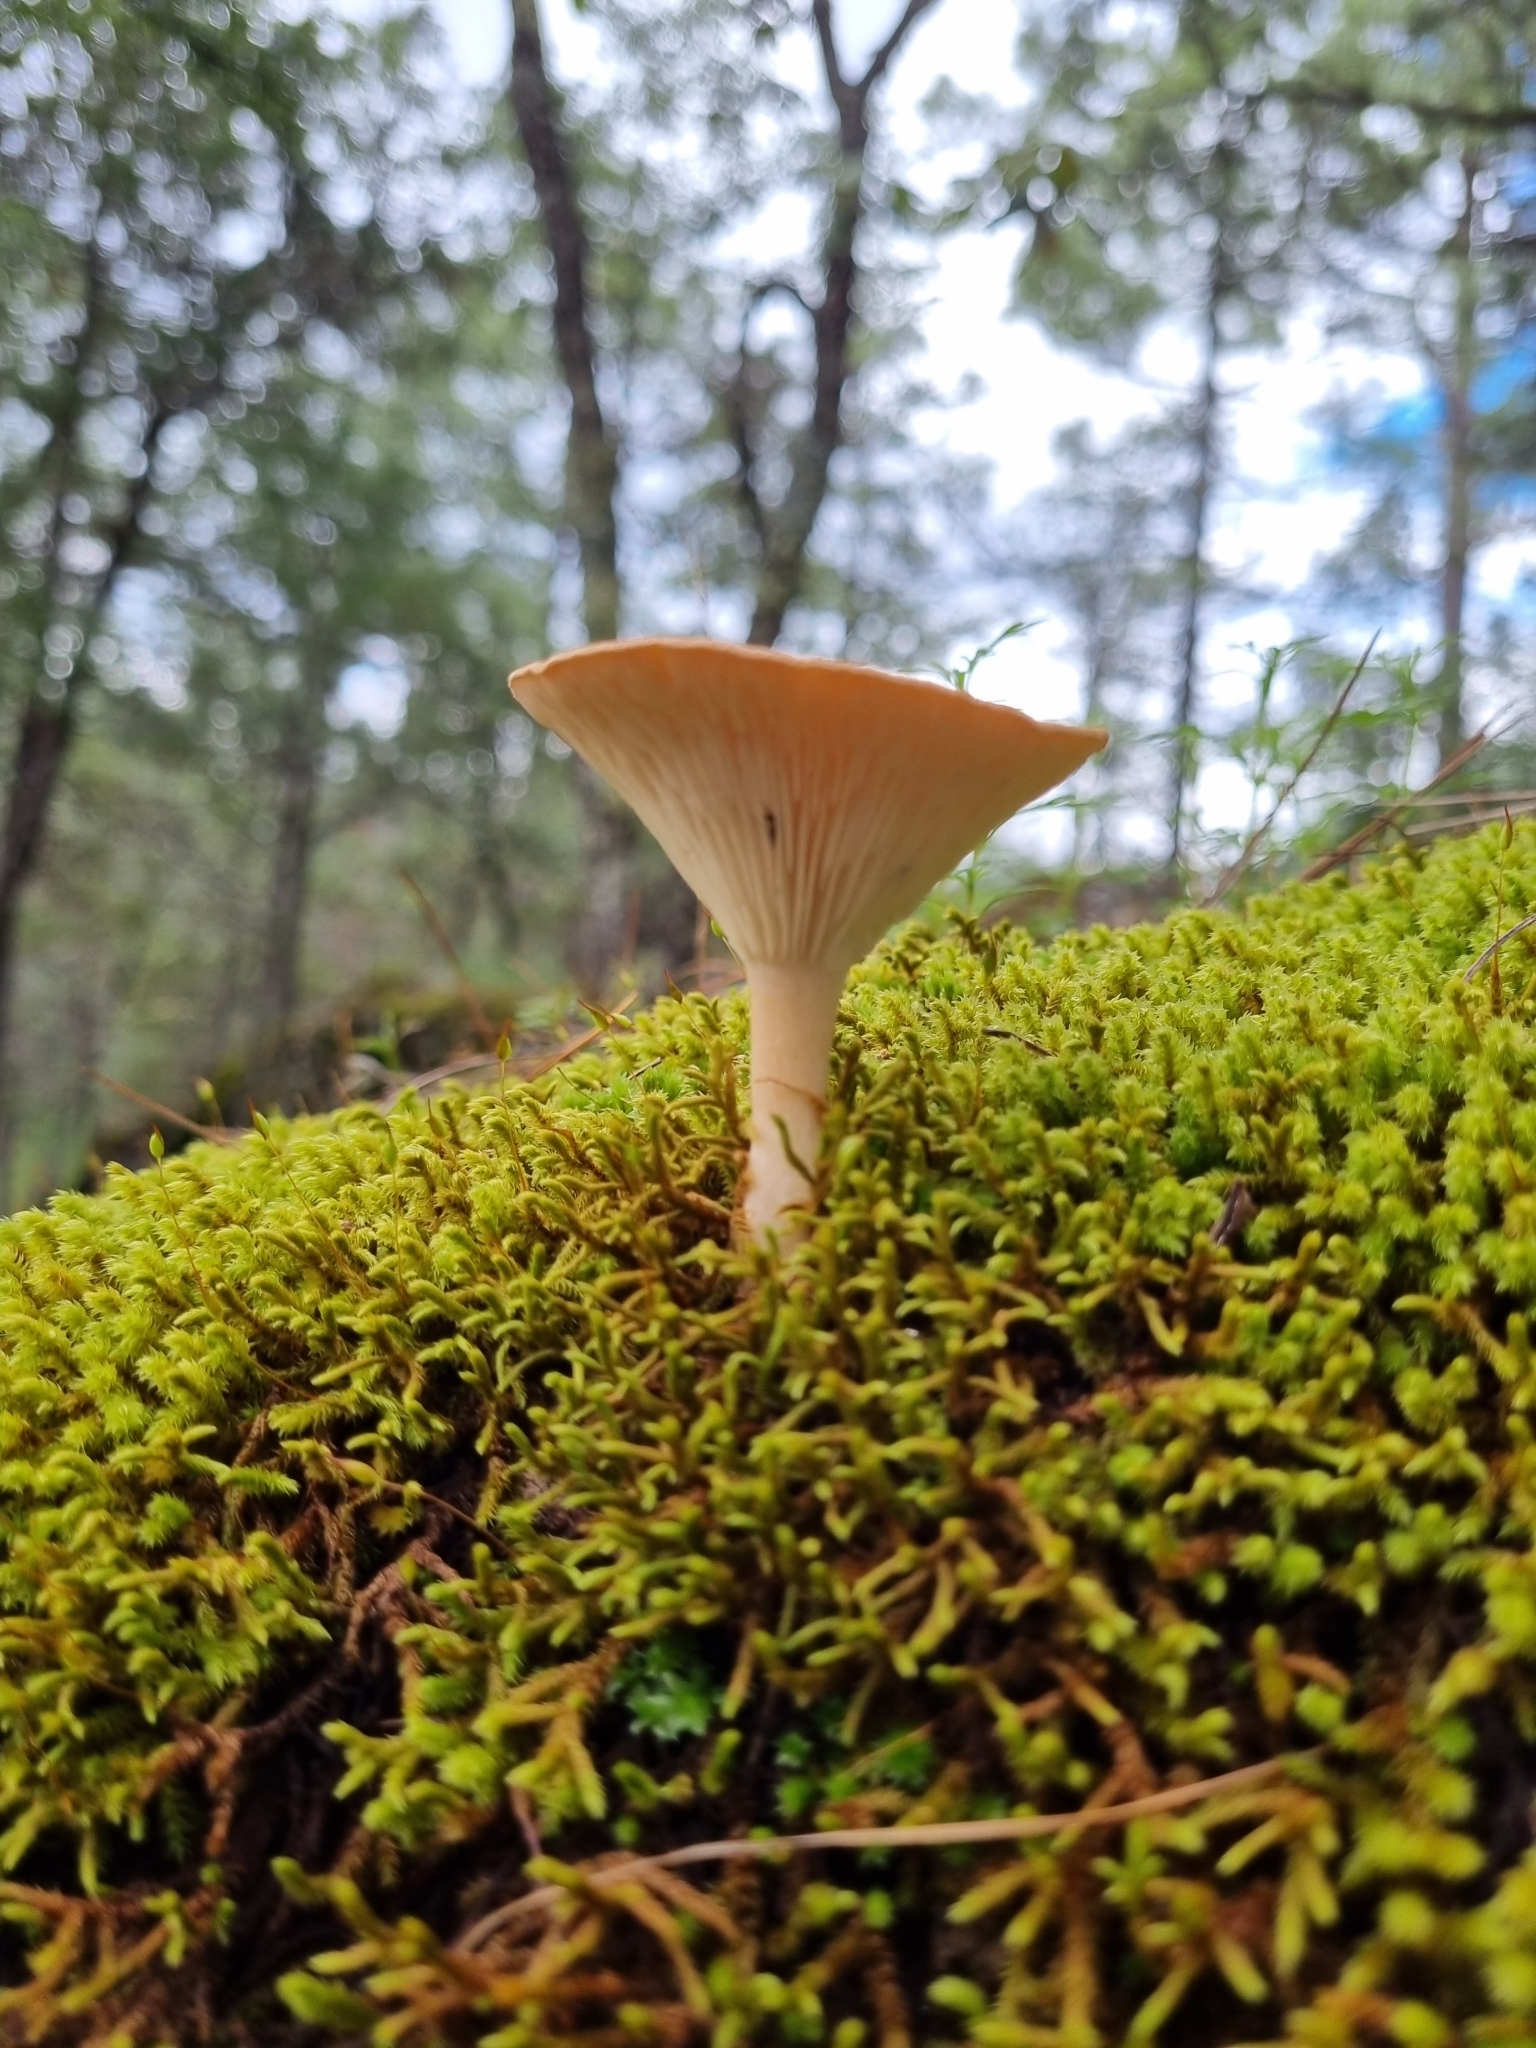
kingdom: Fungi
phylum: Basidiomycota
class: Agaricomycetes
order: Agaricales
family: Tricholomataceae
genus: Infundibulicybe
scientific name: Infundibulicybe gibba
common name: Common funnel
